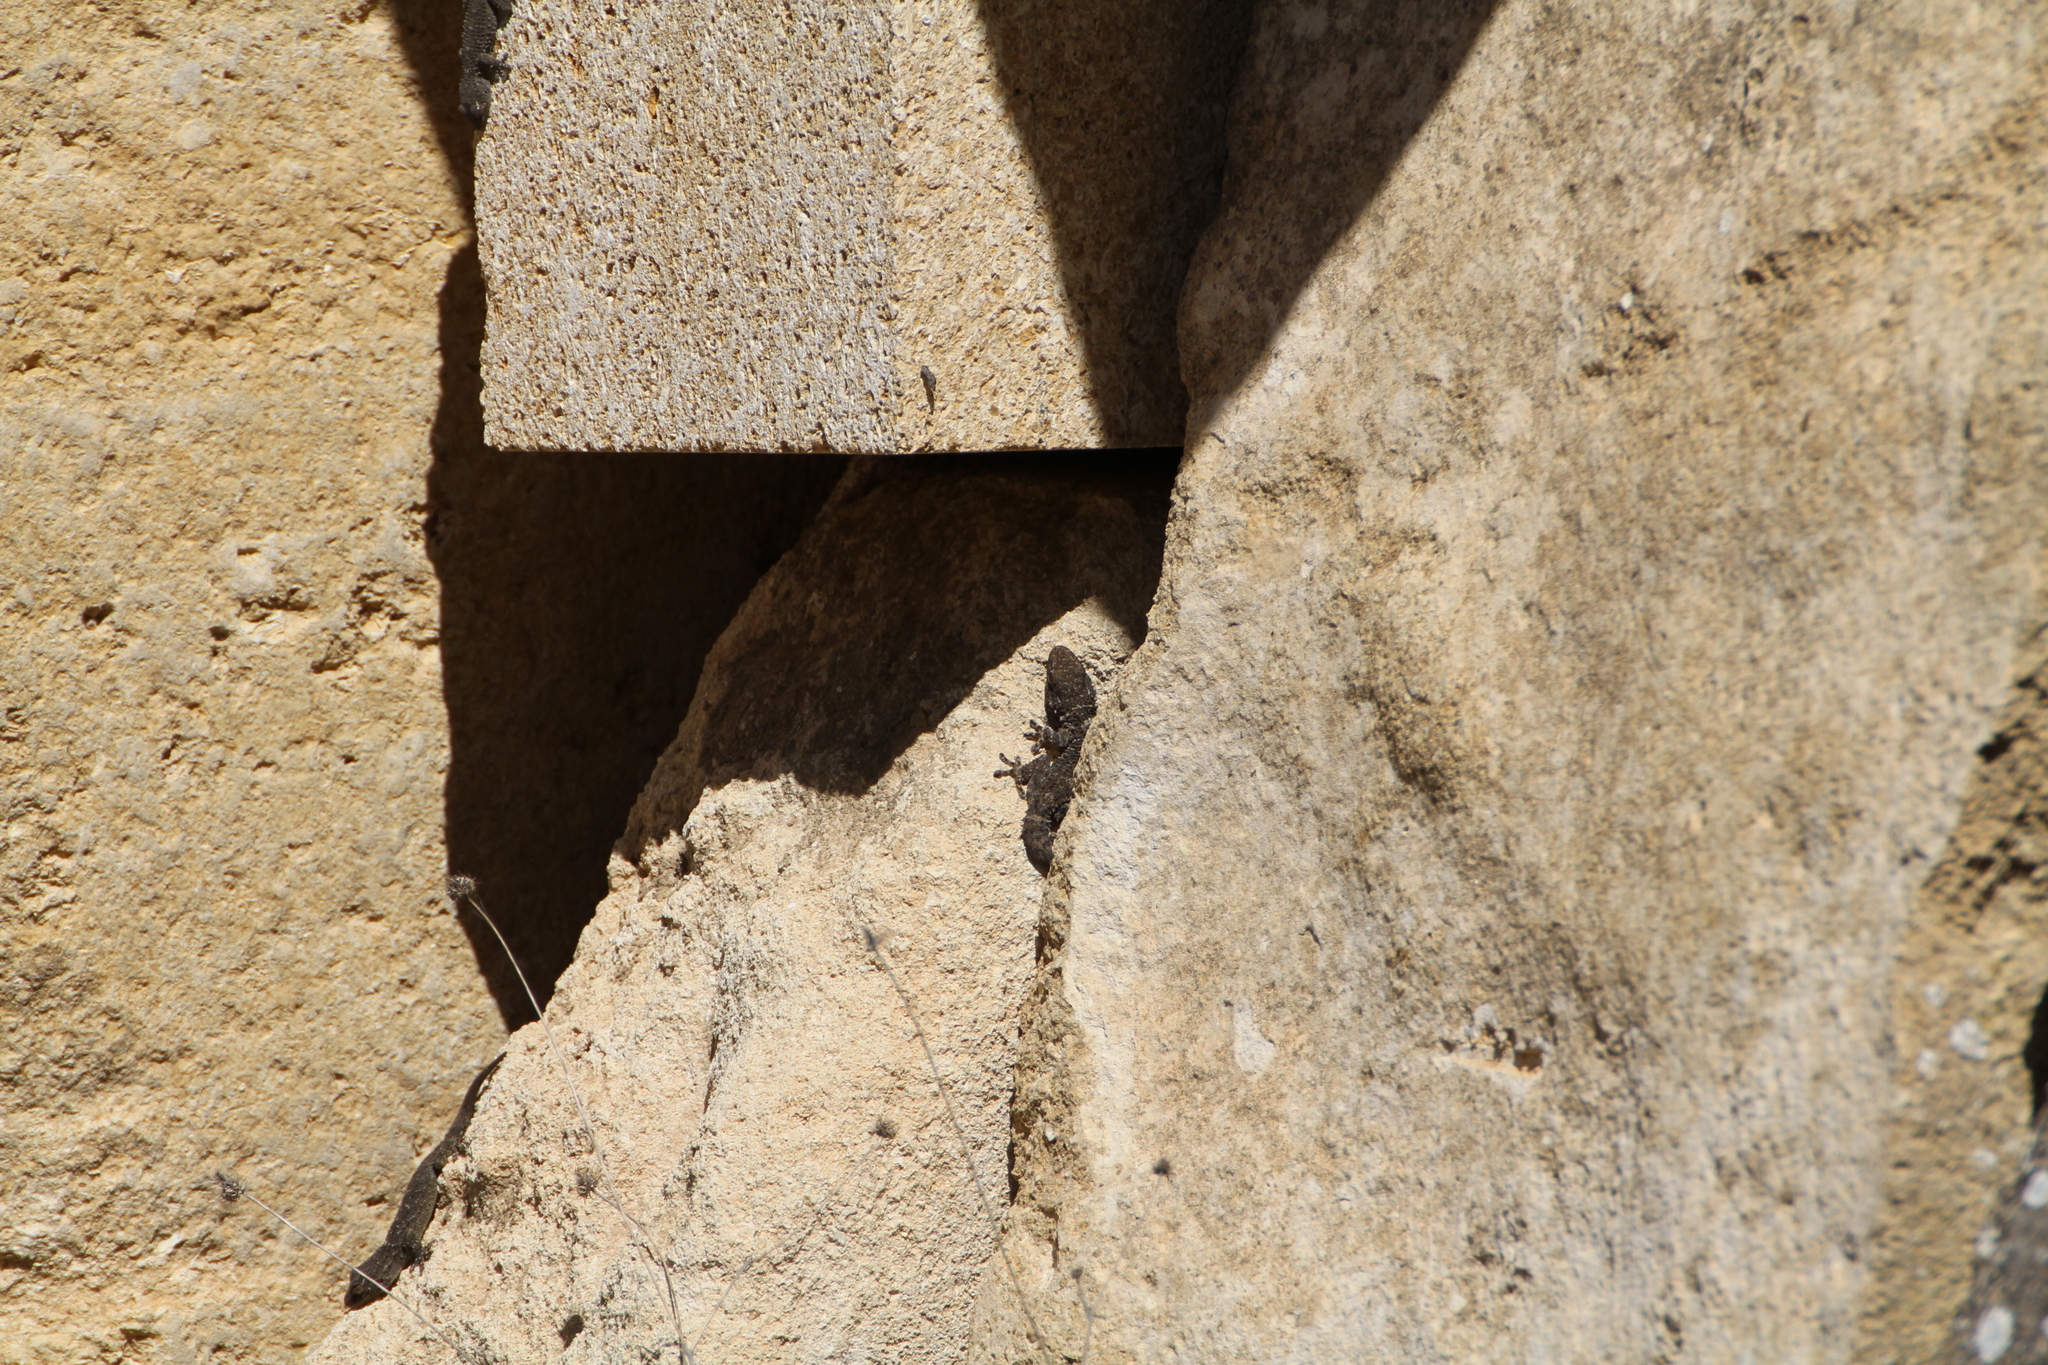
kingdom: Animalia
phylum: Chordata
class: Squamata
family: Phyllodactylidae
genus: Tarentola
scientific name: Tarentola mauritanica
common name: Moorish gecko
